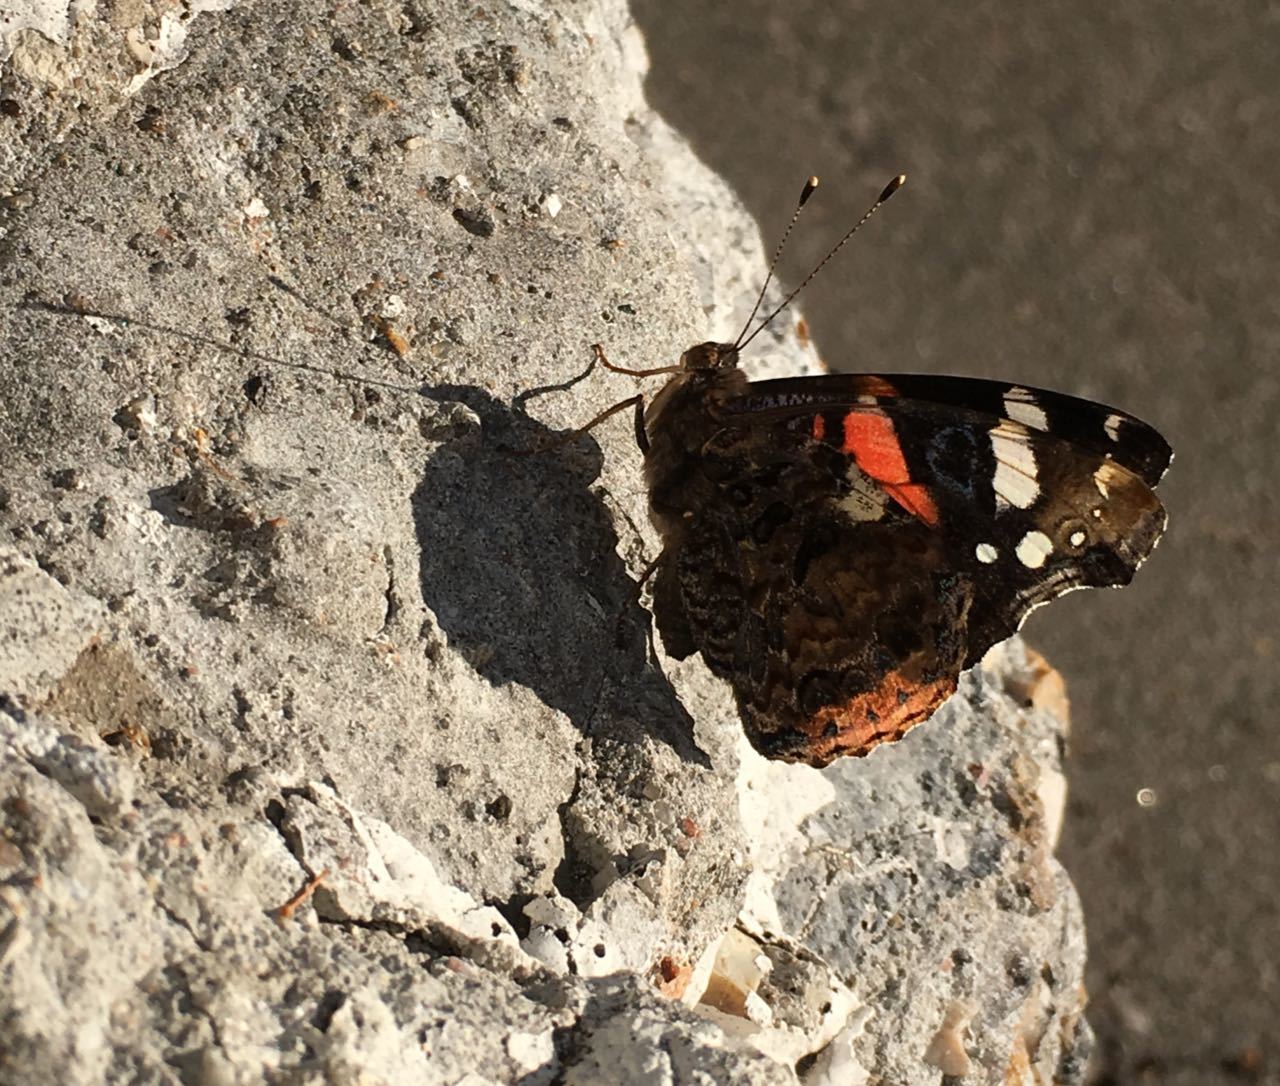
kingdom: Animalia
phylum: Arthropoda
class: Insecta
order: Lepidoptera
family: Nymphalidae
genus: Vanessa
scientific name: Vanessa atalanta
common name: Red admiral
